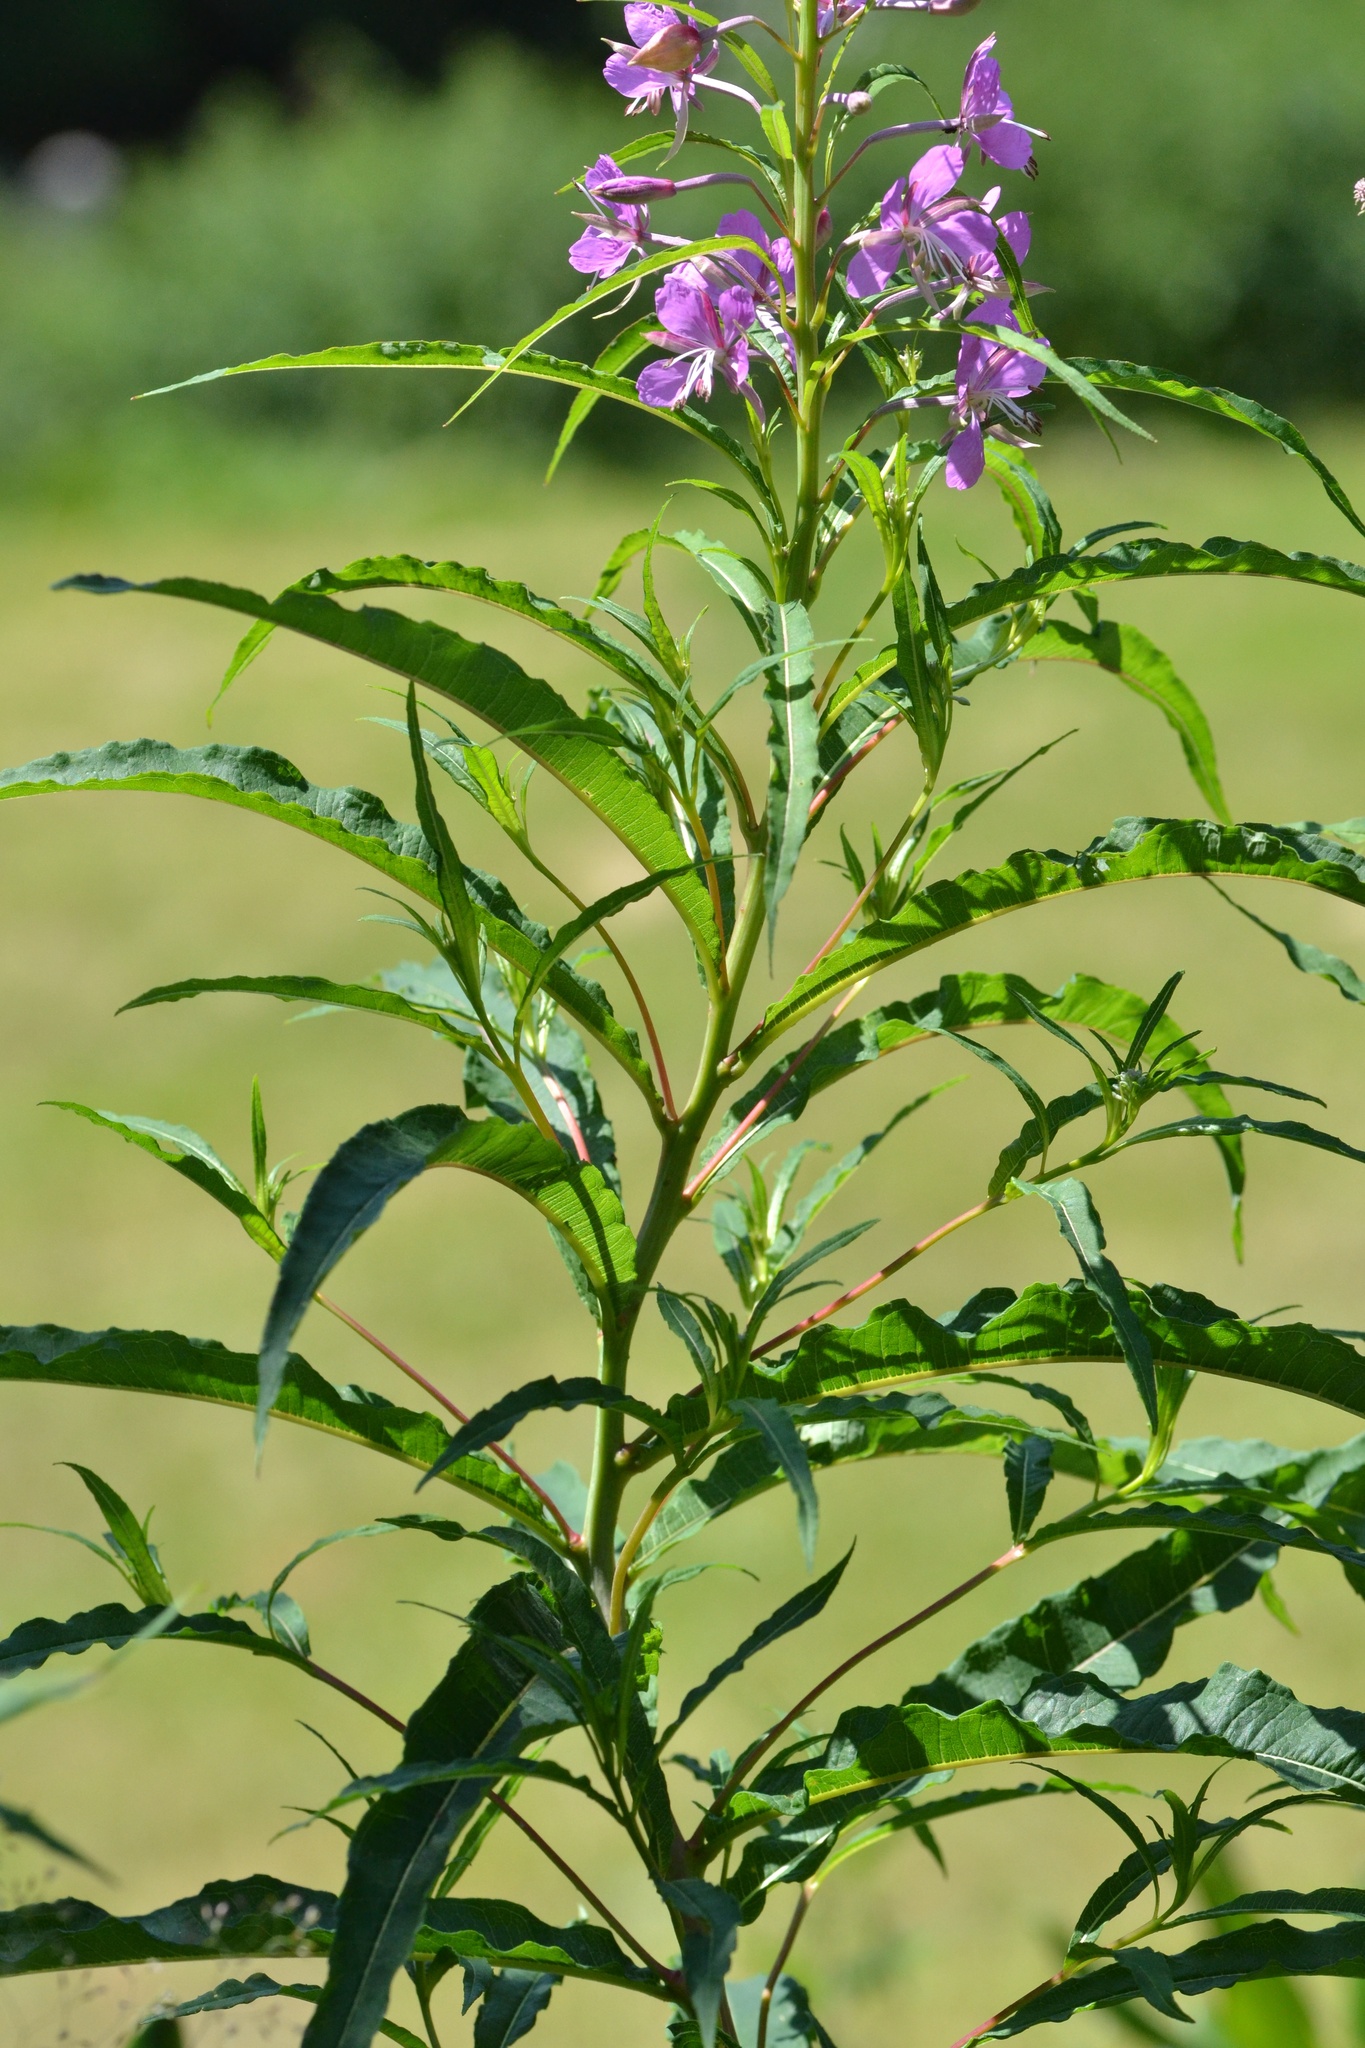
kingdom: Plantae
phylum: Tracheophyta
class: Magnoliopsida
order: Myrtales
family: Onagraceae
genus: Chamaenerion
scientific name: Chamaenerion angustifolium
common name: Fireweed
